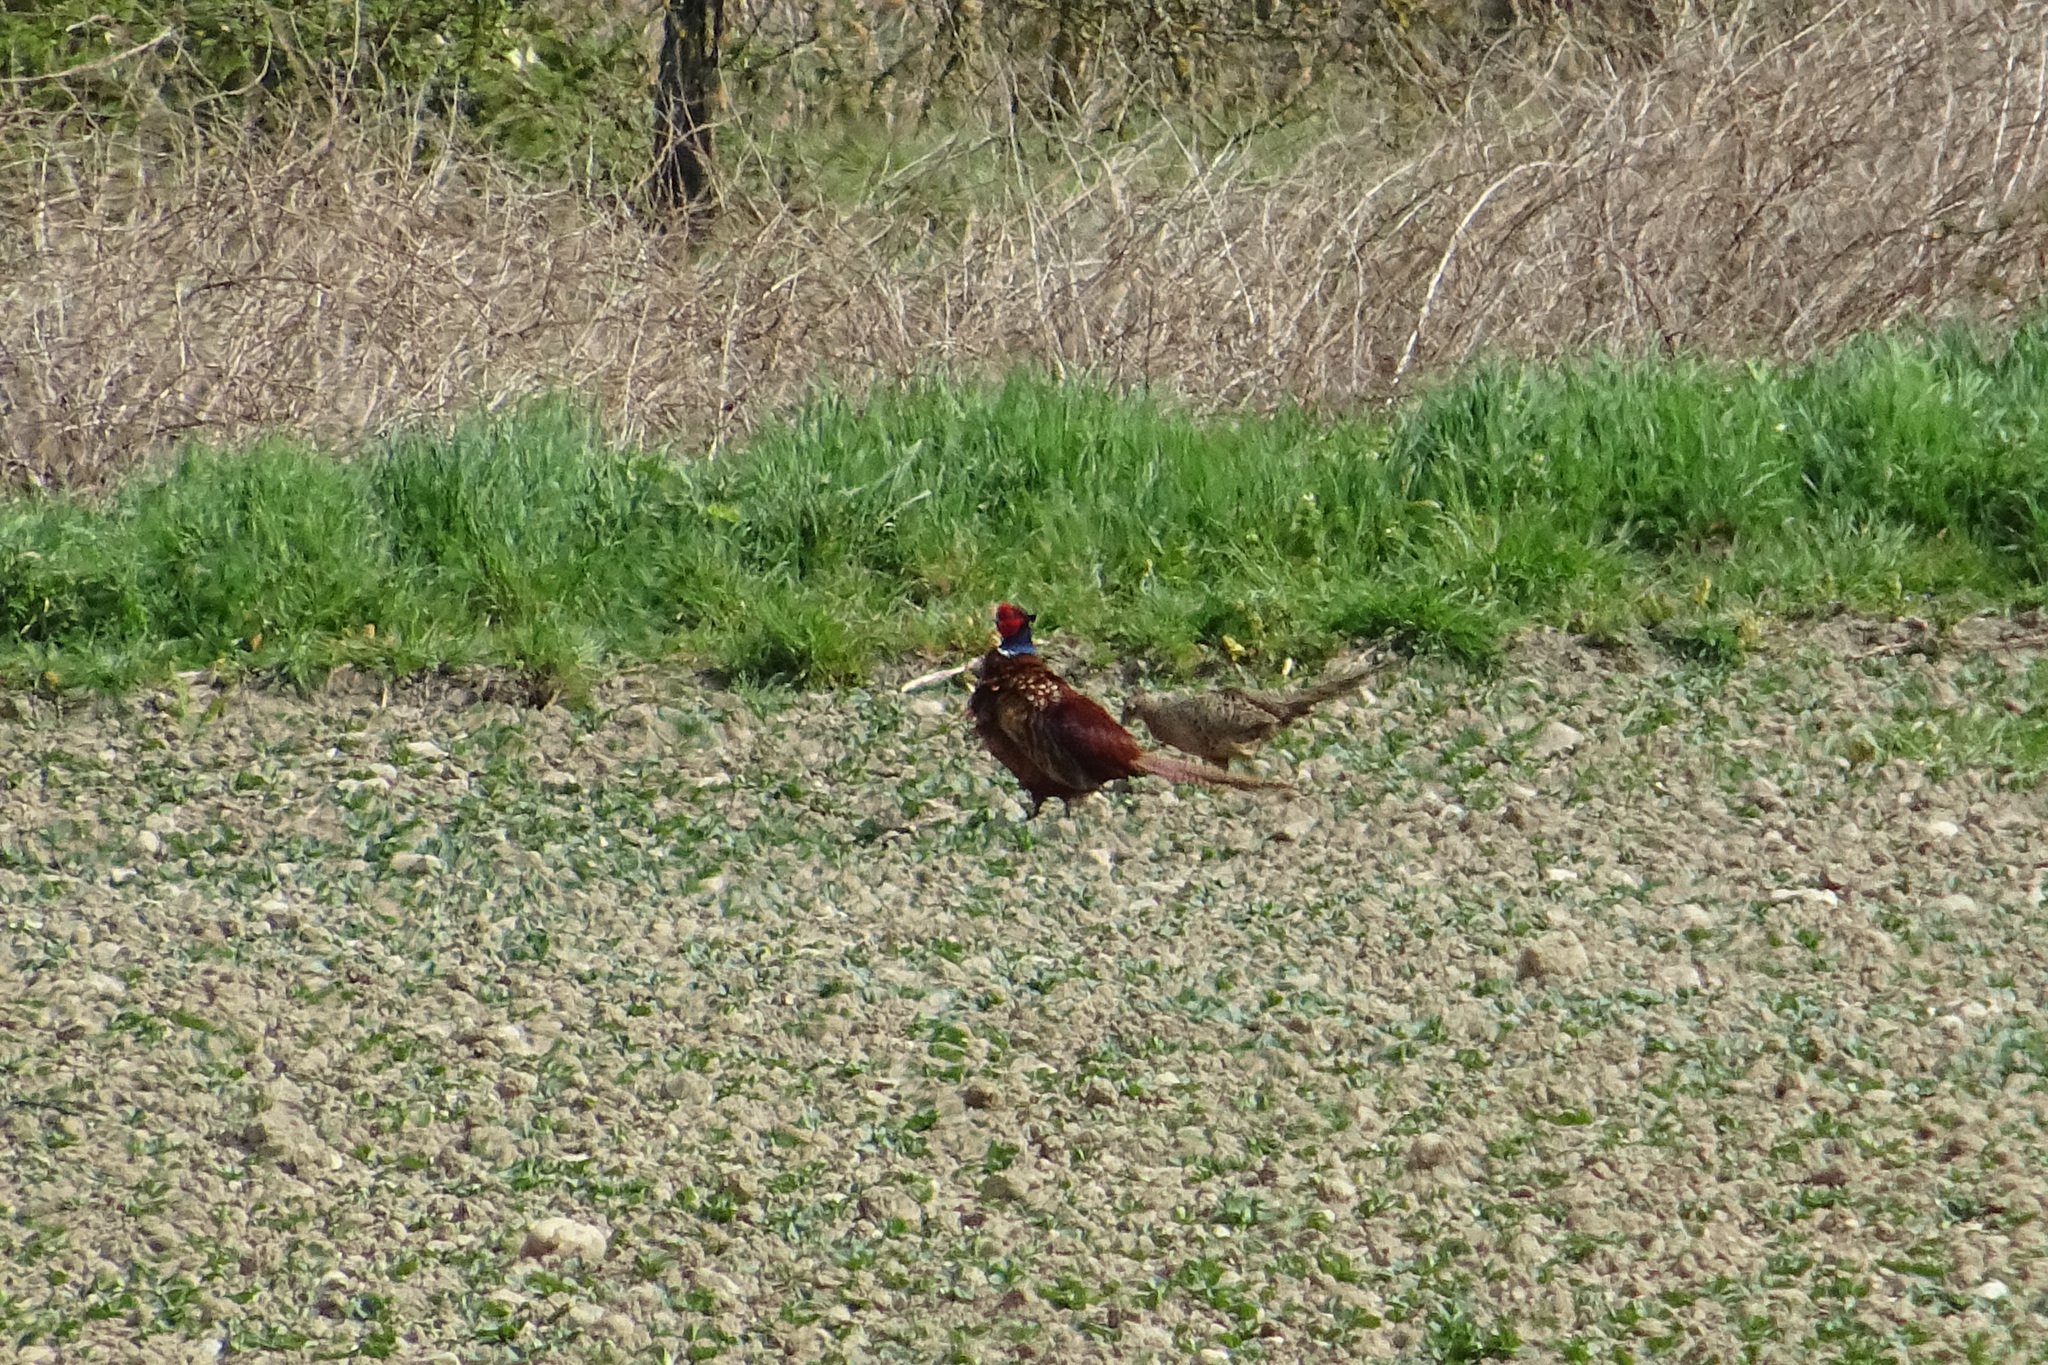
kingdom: Animalia
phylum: Chordata
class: Aves
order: Galliformes
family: Phasianidae
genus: Phasianus
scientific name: Phasianus colchicus
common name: Common pheasant
